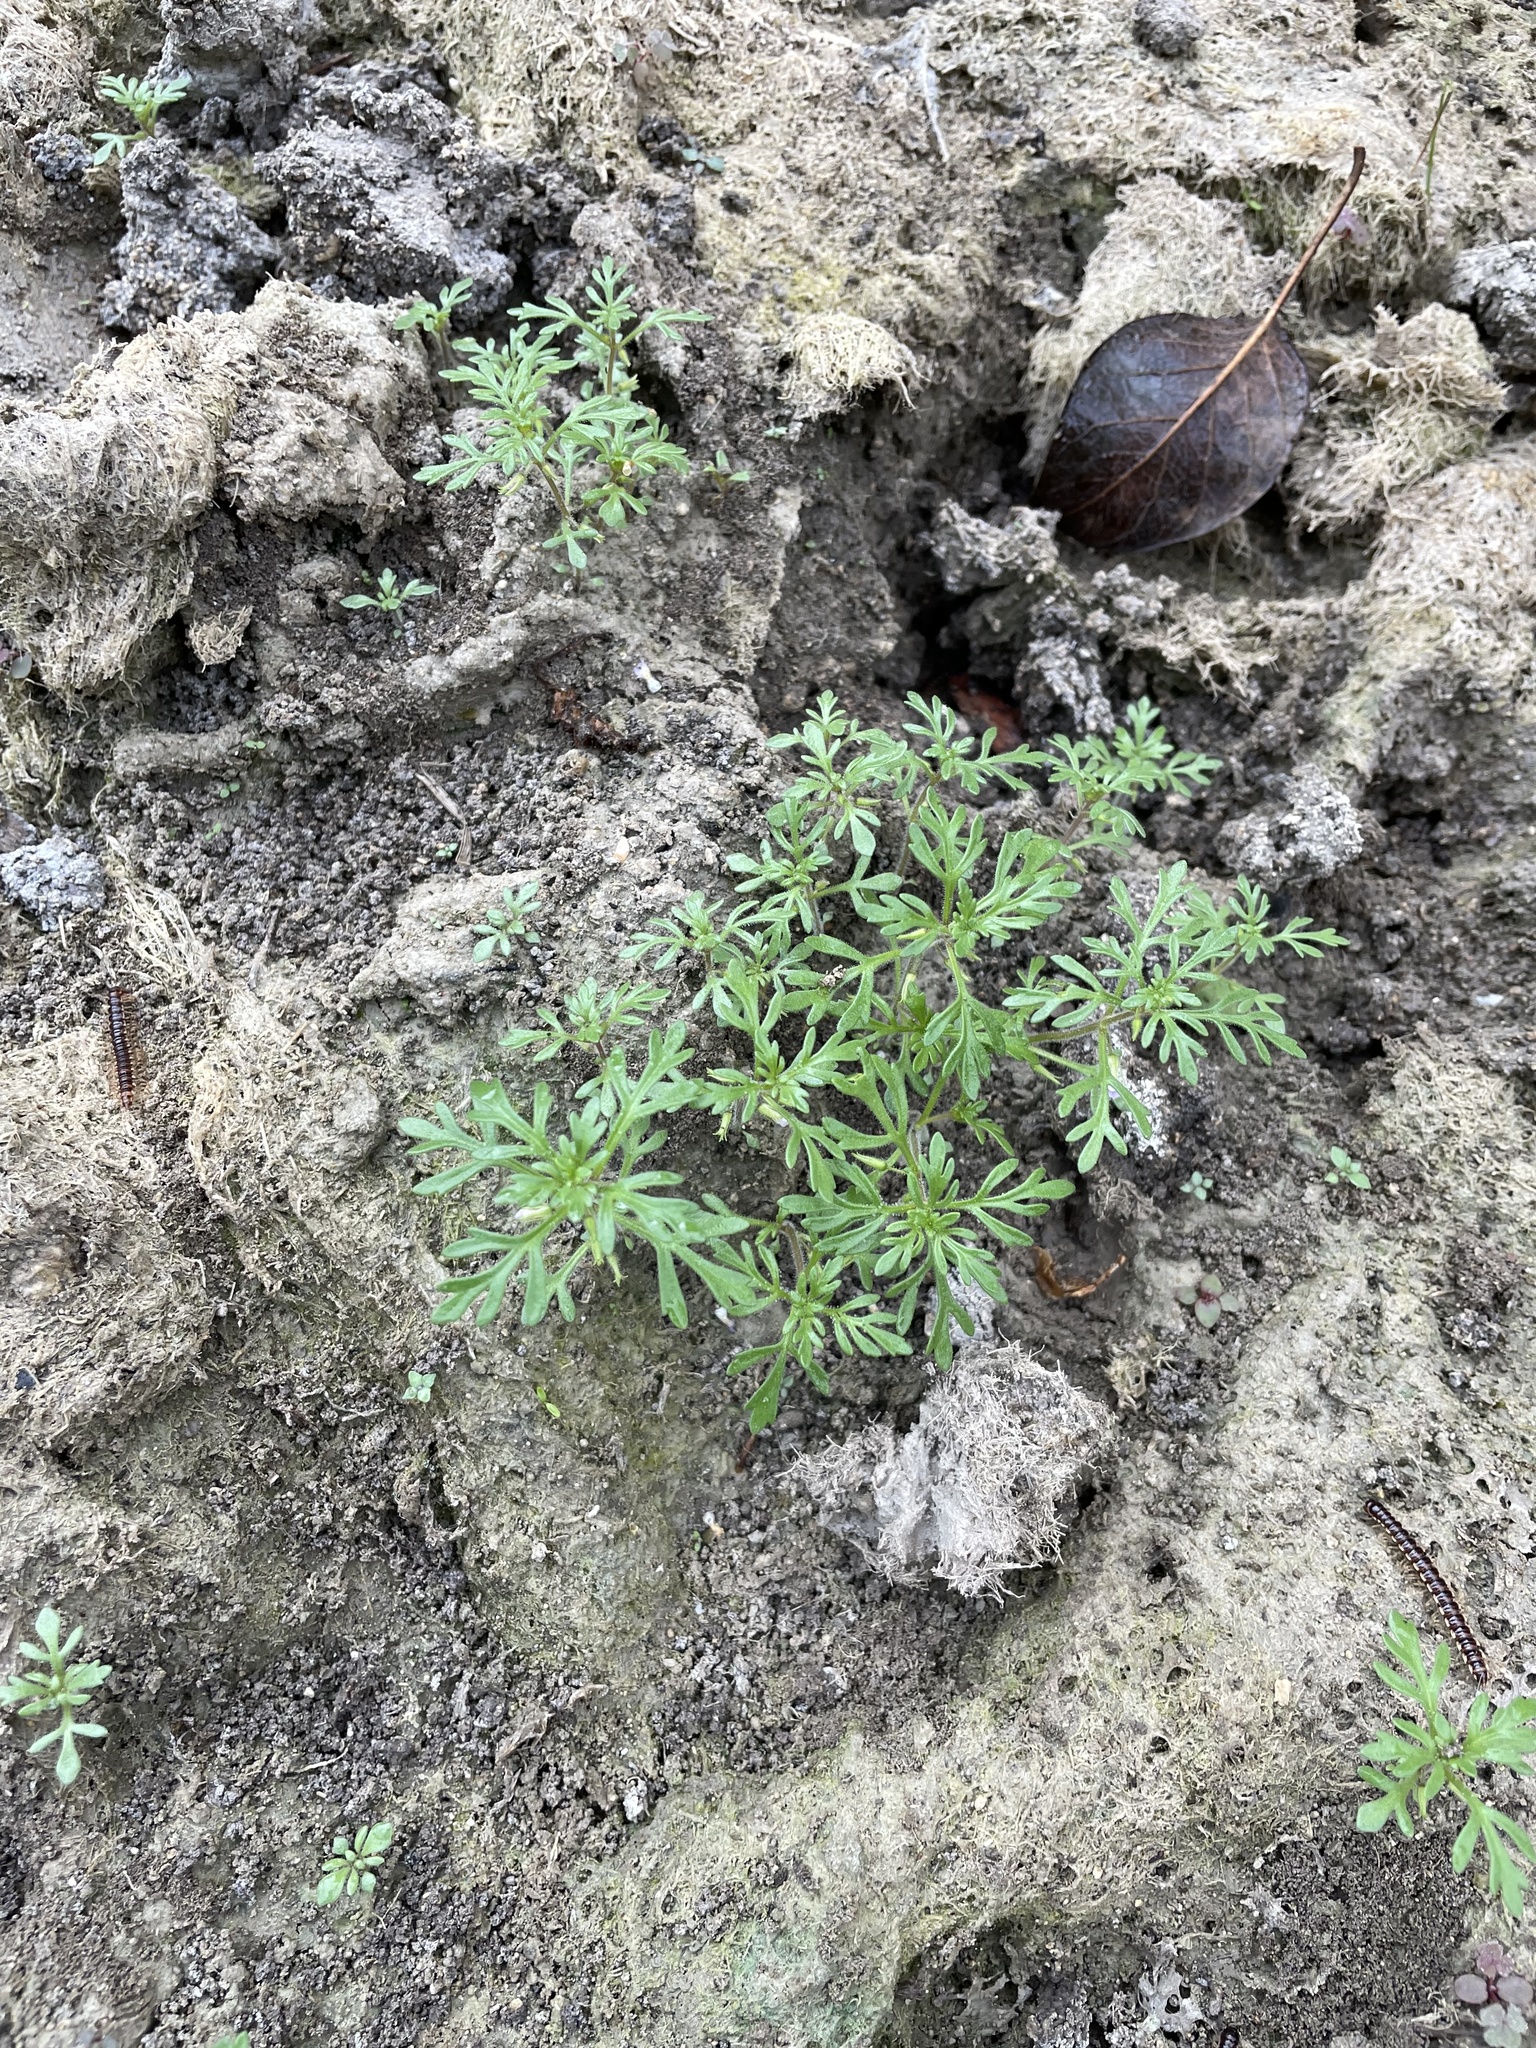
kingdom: Plantae
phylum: Tracheophyta
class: Magnoliopsida
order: Lamiales
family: Plantaginaceae
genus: Leucospora
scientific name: Leucospora multifida
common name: Narrow-leaf paleseed
